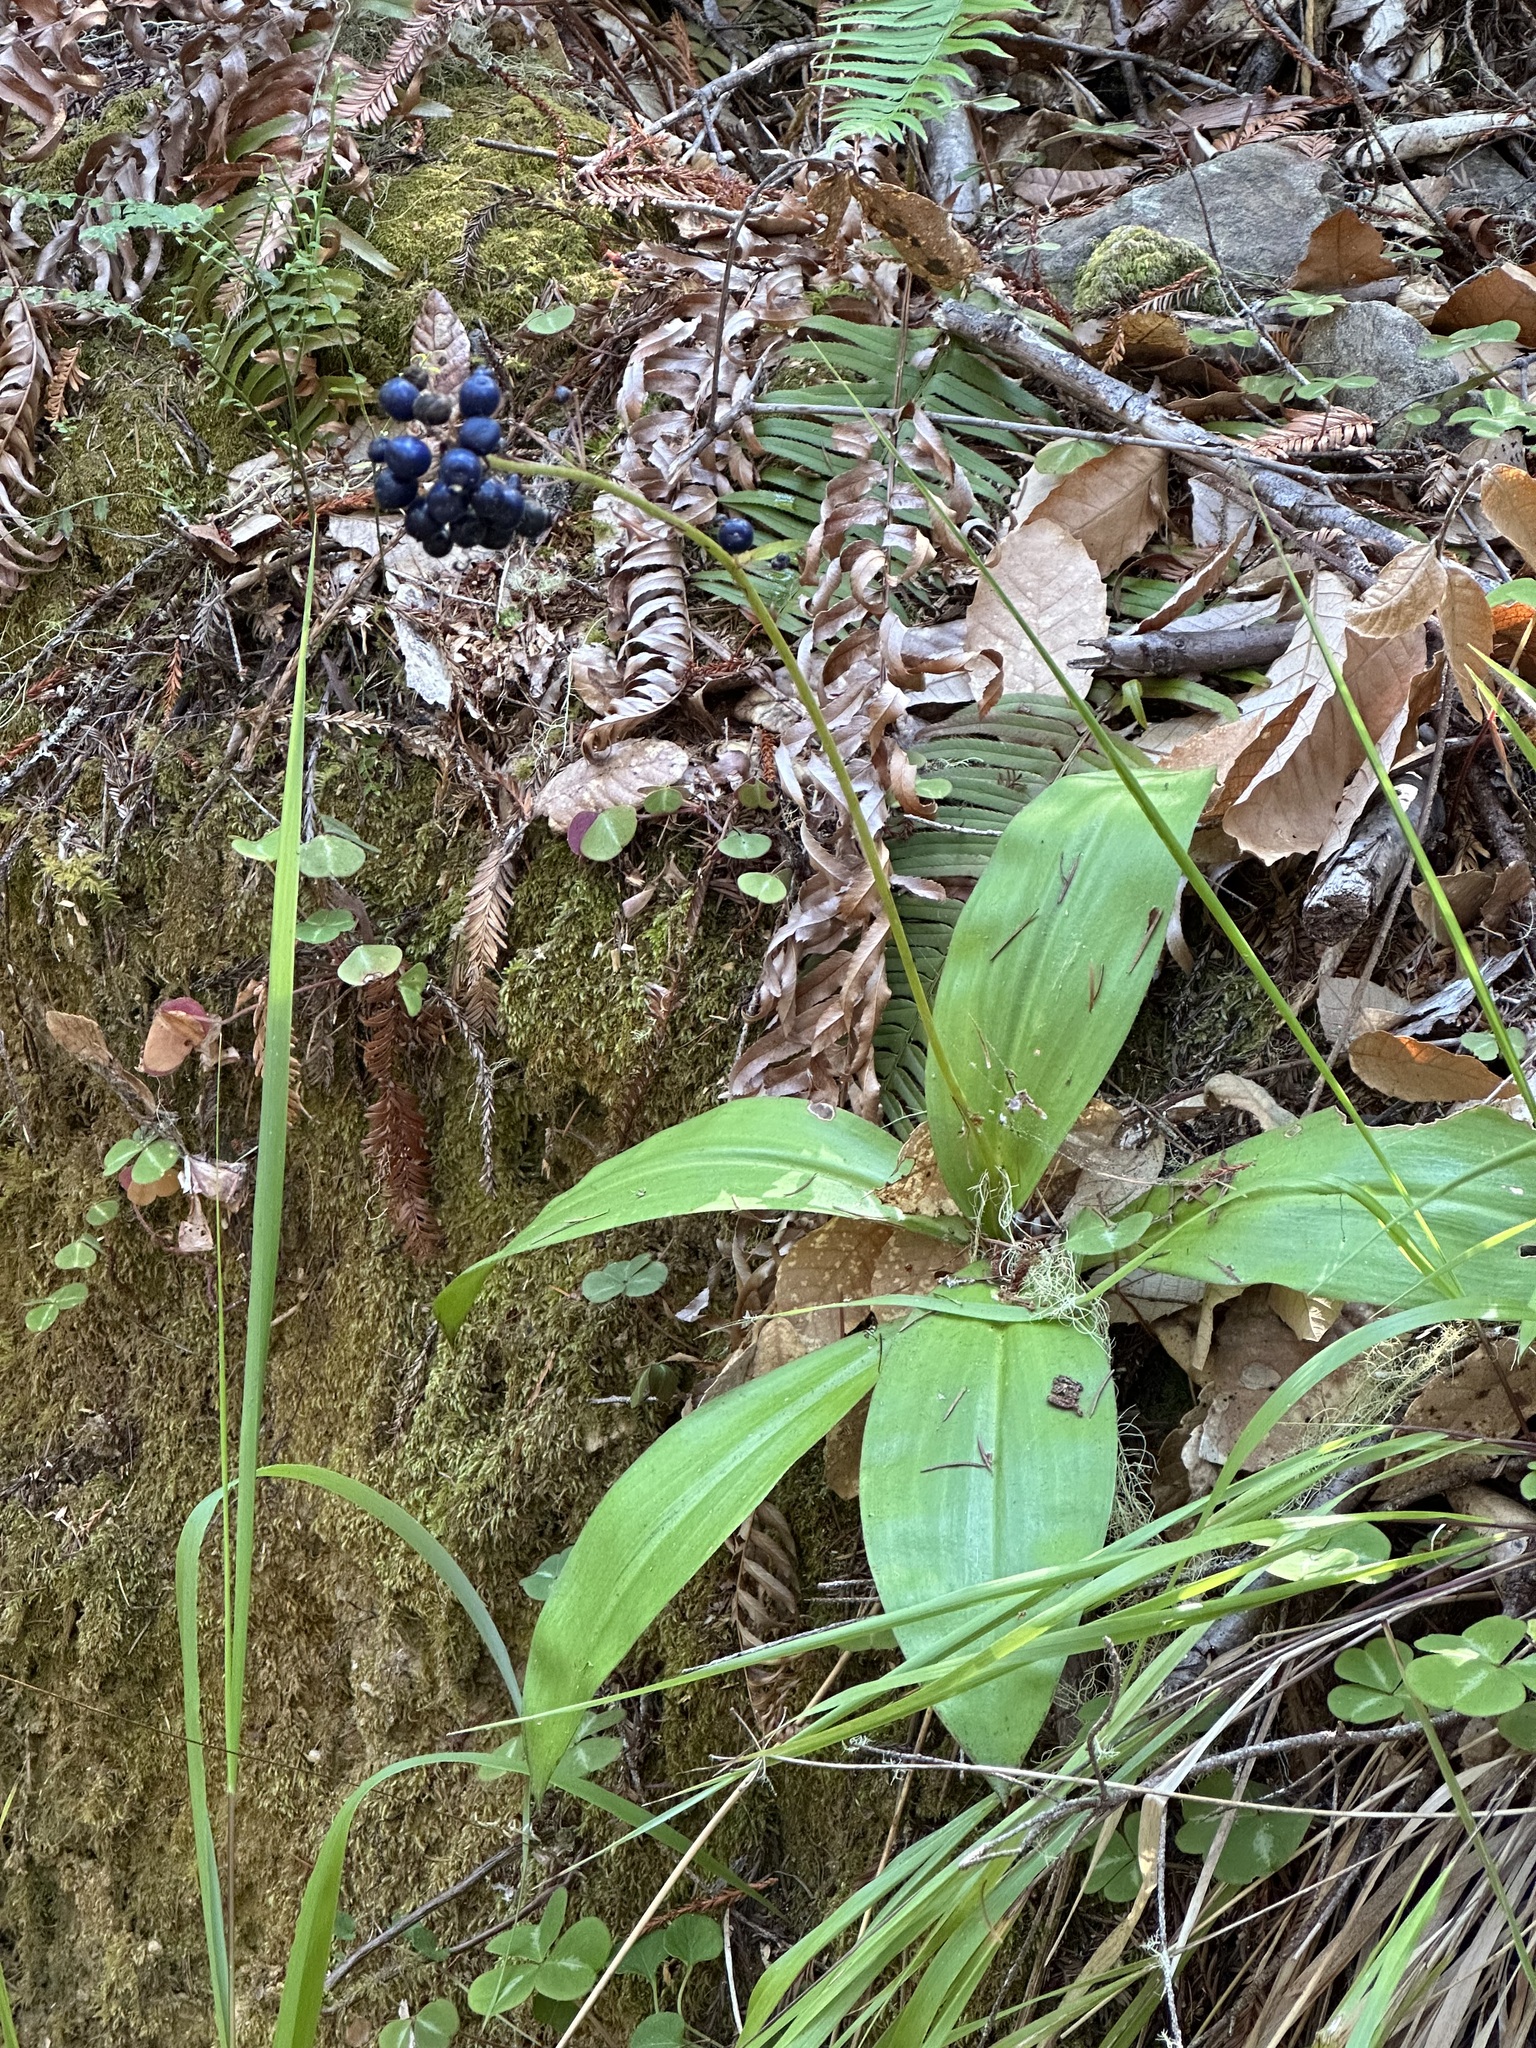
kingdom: Plantae
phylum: Tracheophyta
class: Liliopsida
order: Liliales
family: Liliaceae
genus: Clintonia
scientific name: Clintonia andrewsiana
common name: Red clintonia
